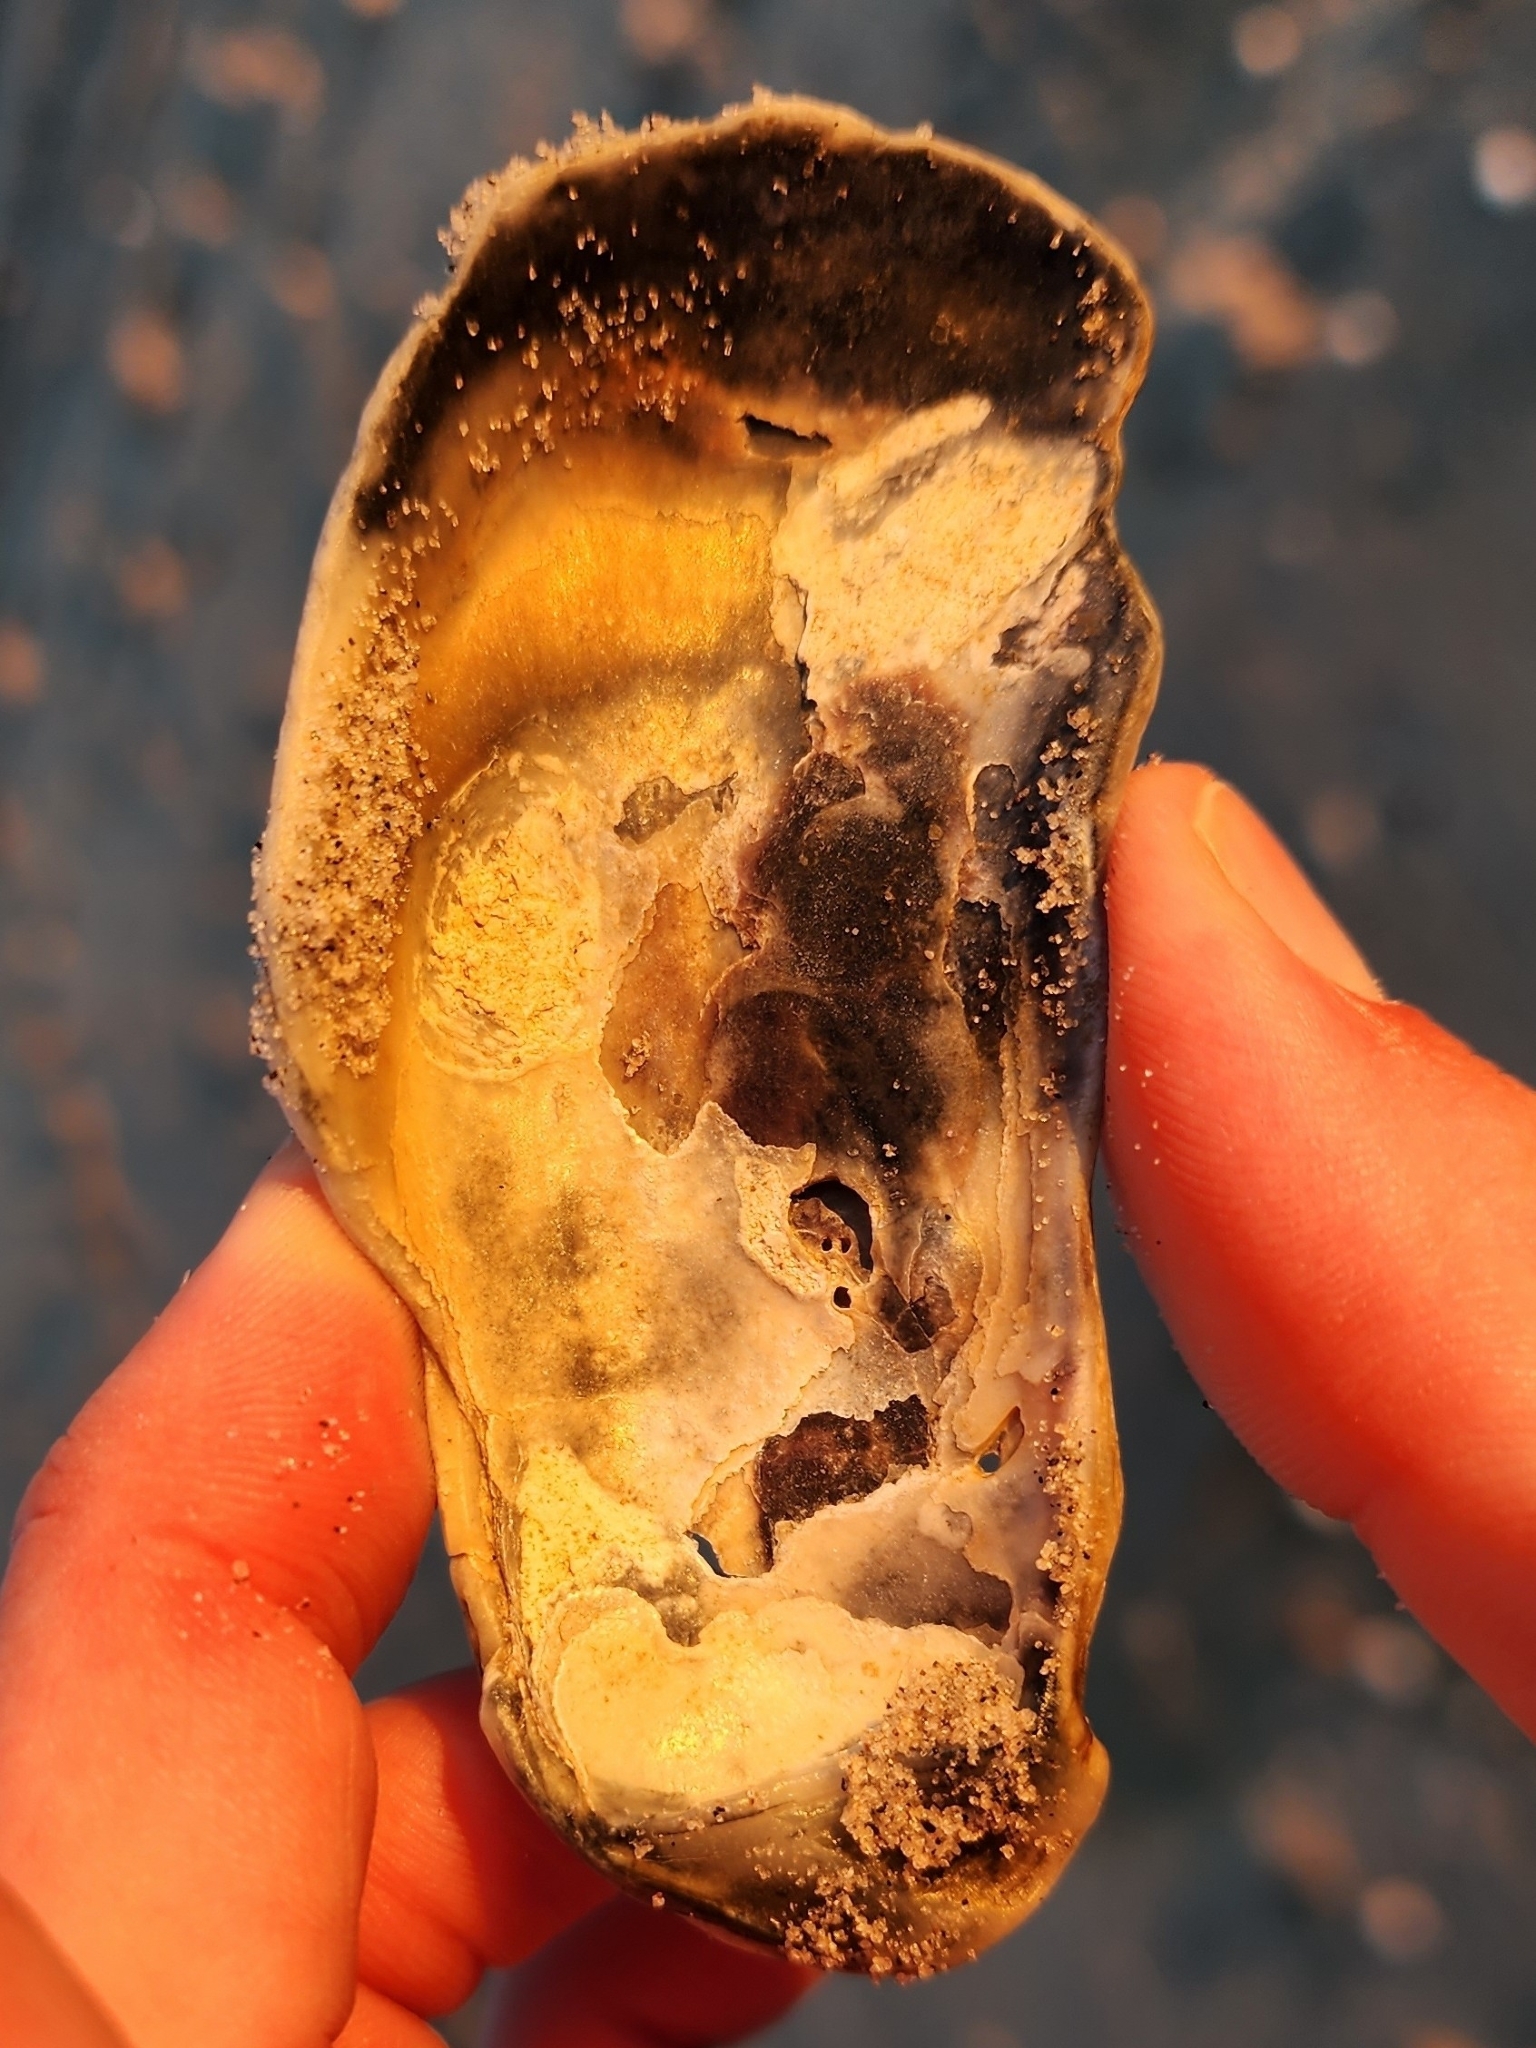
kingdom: Animalia
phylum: Mollusca
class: Bivalvia
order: Ostreida
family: Ostreidae
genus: Crassostrea
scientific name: Crassostrea virginica
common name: American oyster
